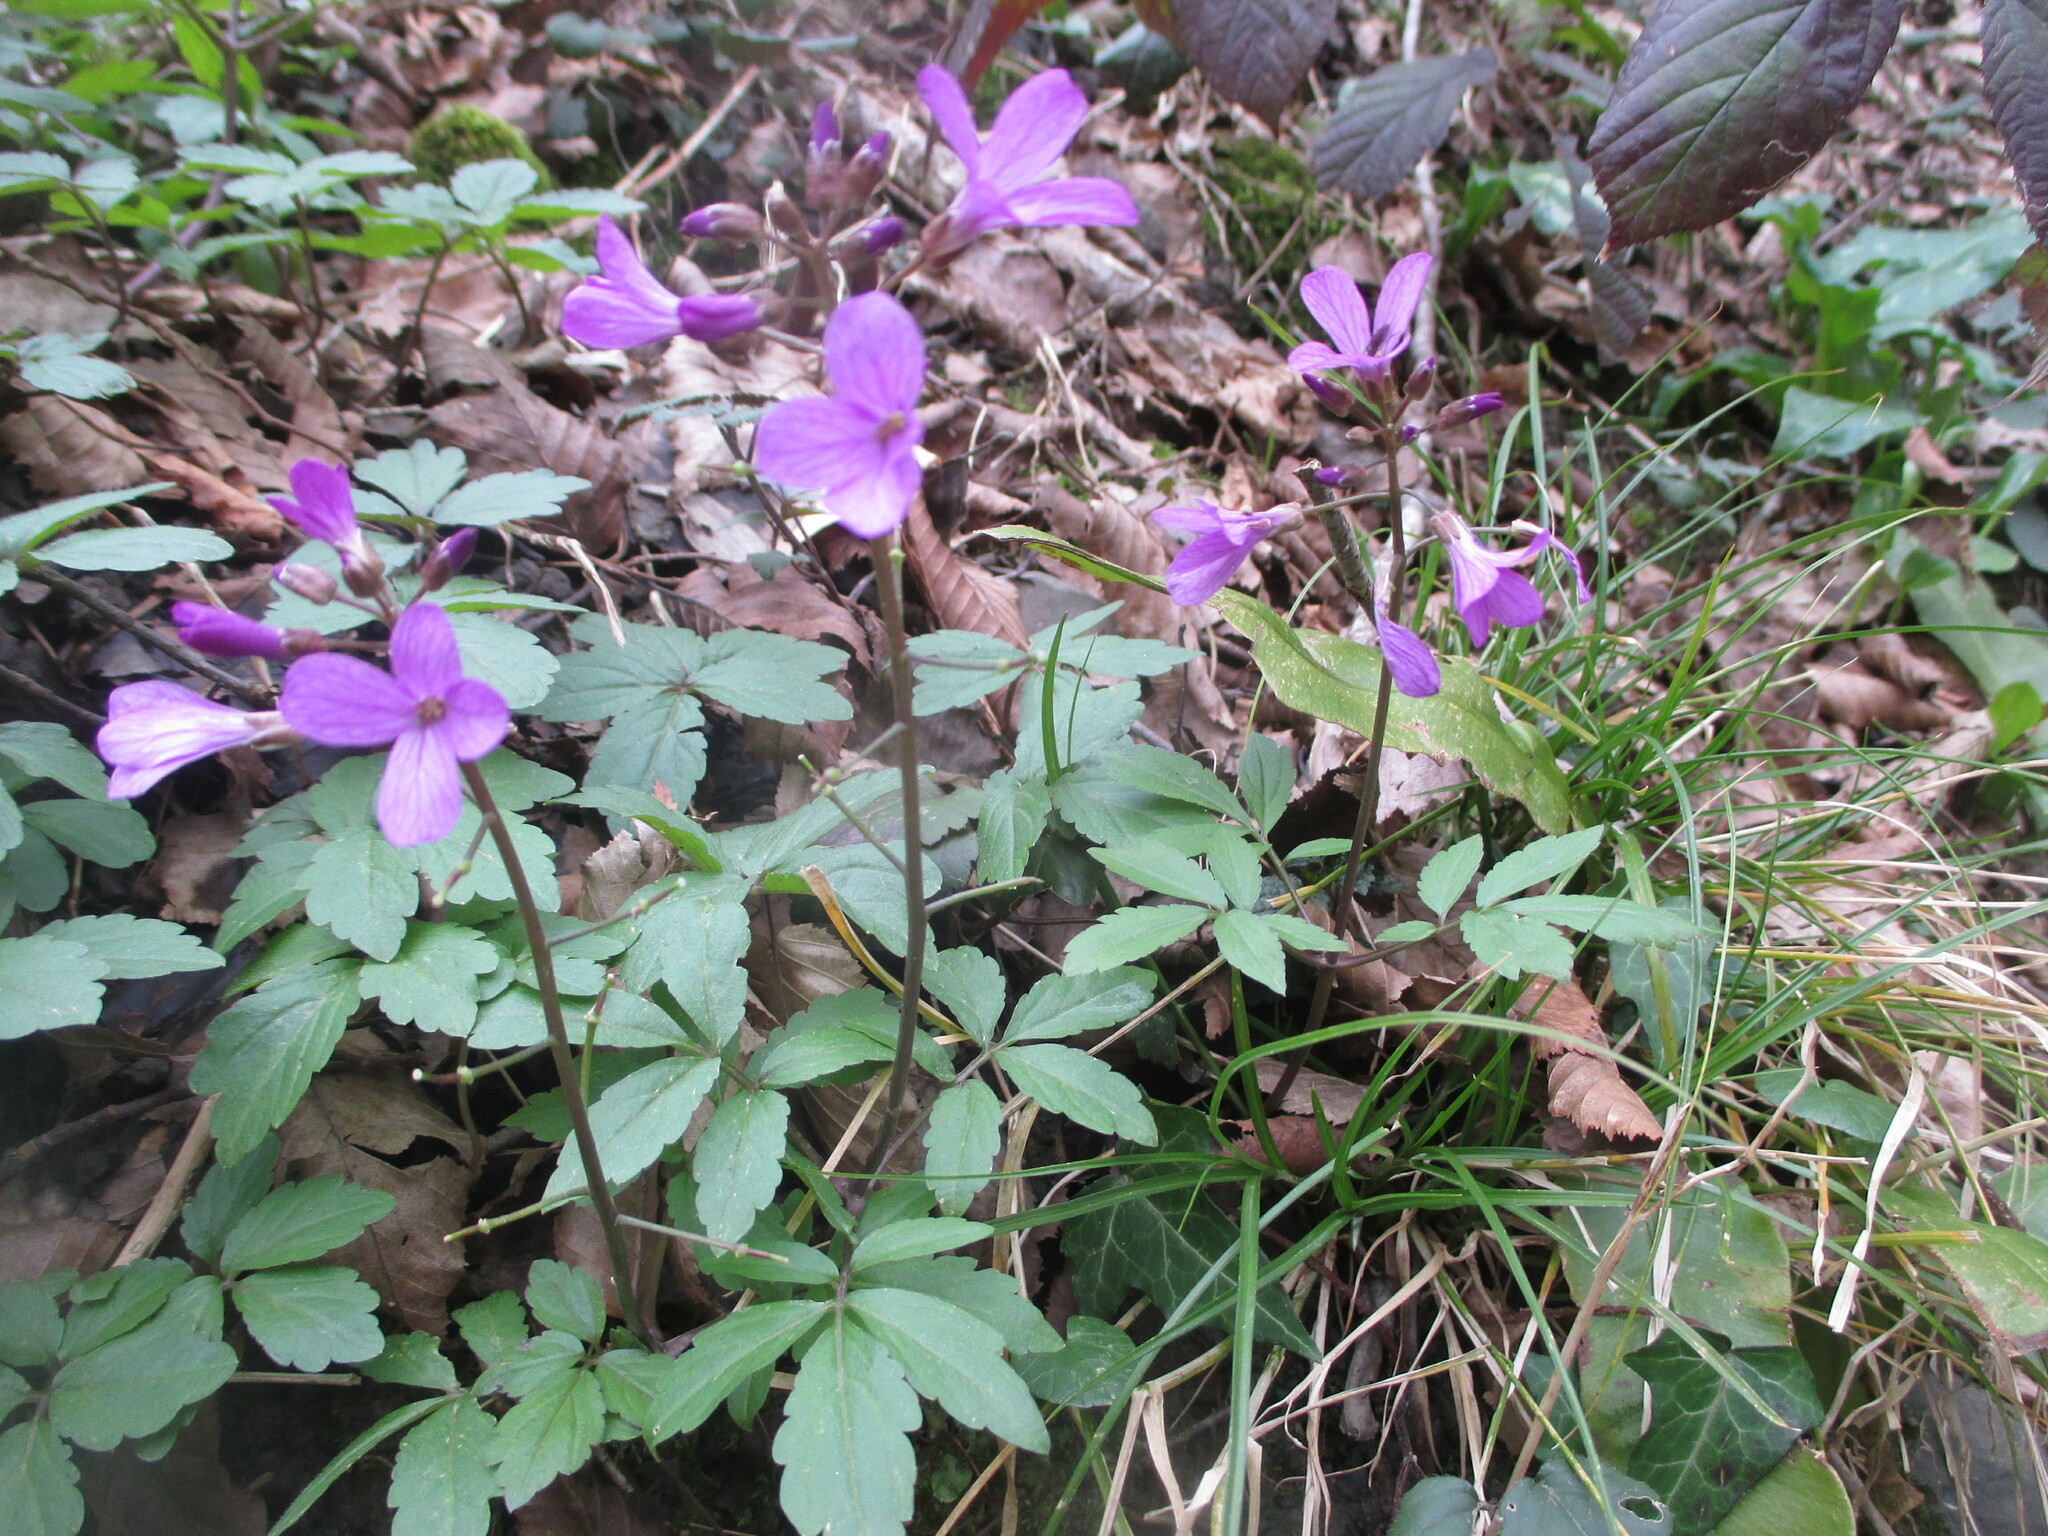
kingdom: Plantae
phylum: Tracheophyta
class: Magnoliopsida
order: Brassicales
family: Brassicaceae
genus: Cardamine
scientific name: Cardamine quinquefolia
